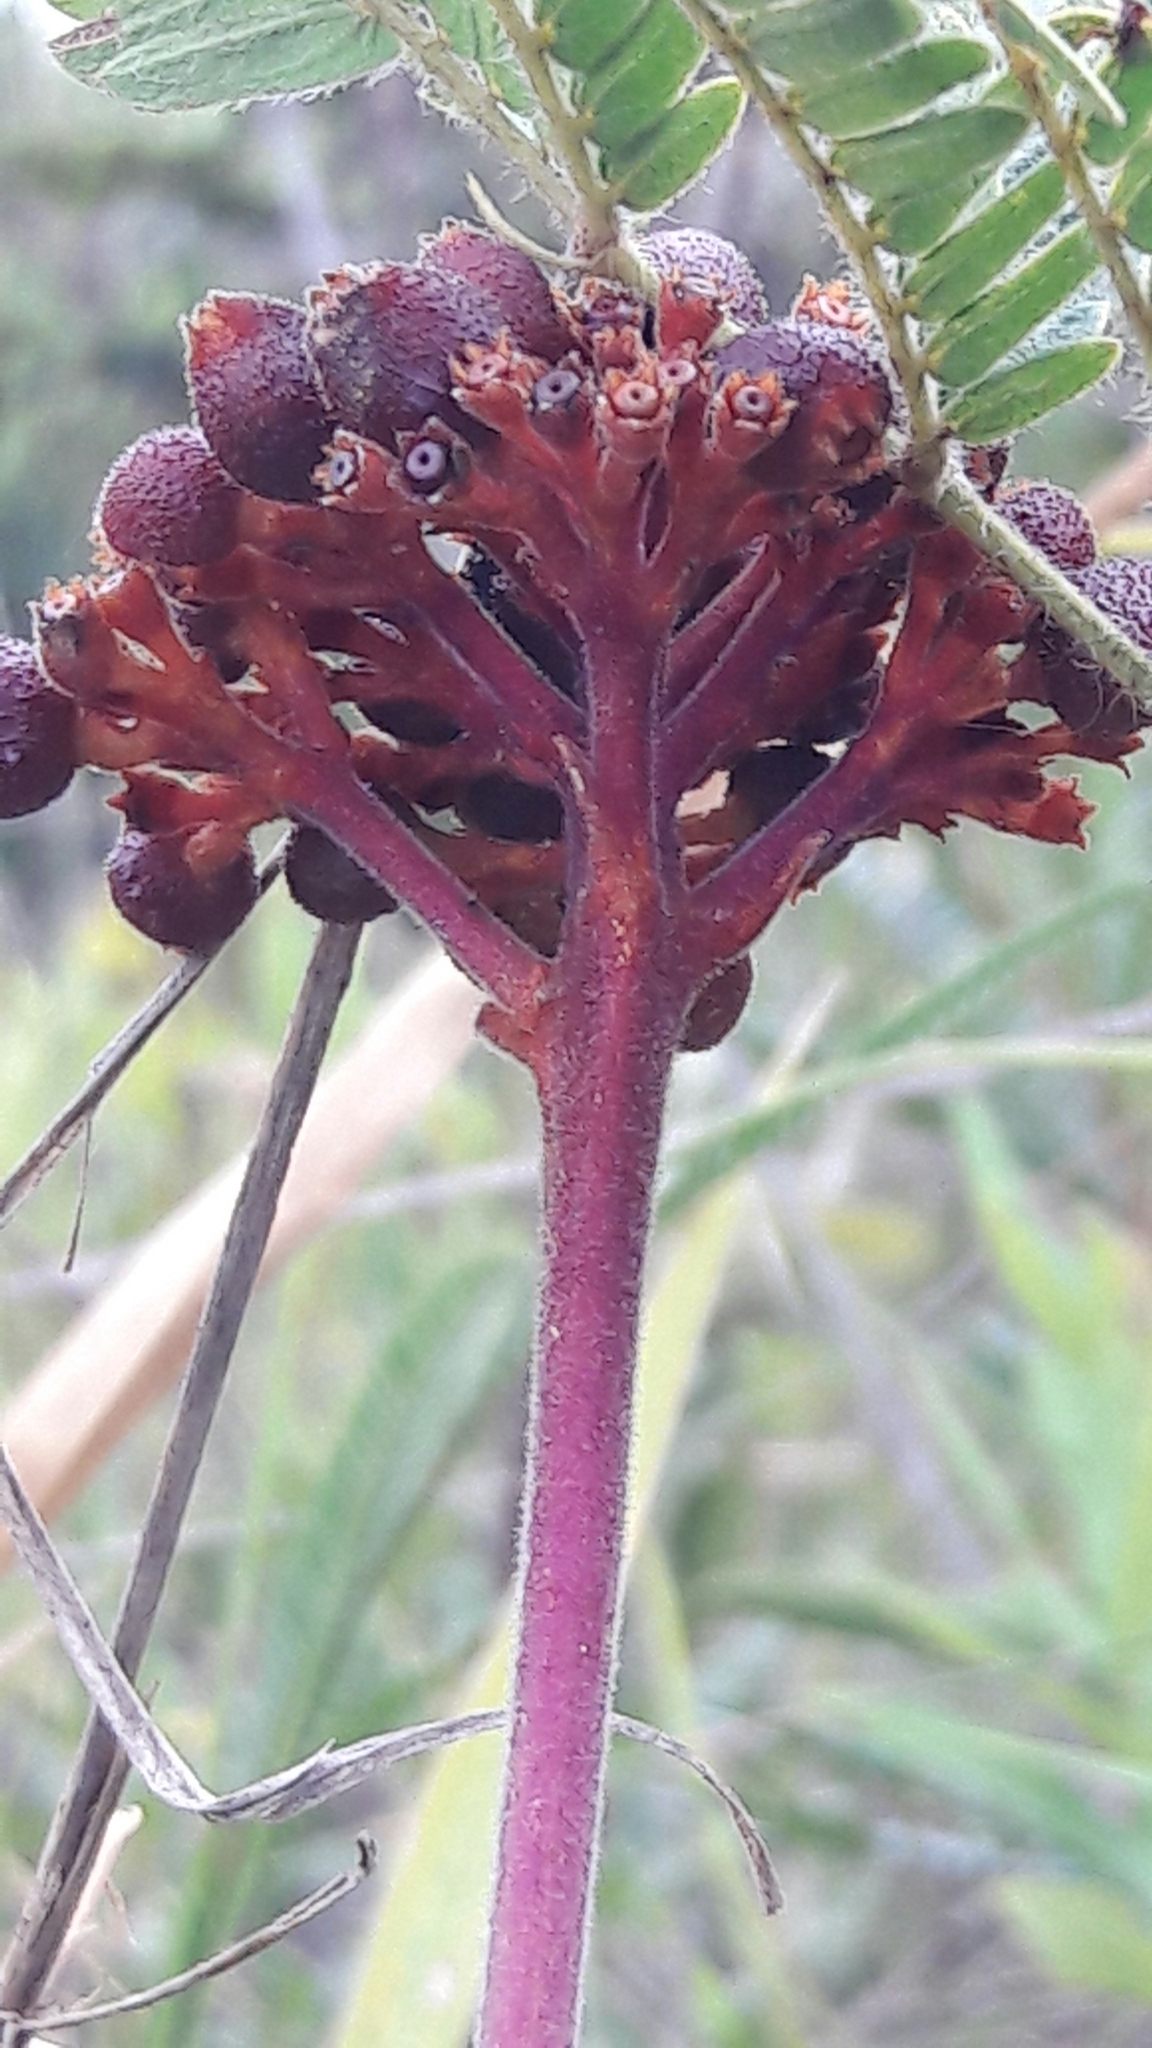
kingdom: Plantae
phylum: Tracheophyta
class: Magnoliopsida
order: Gentianales
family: Rubiaceae
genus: Palicourea
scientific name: Palicourea officinalis
